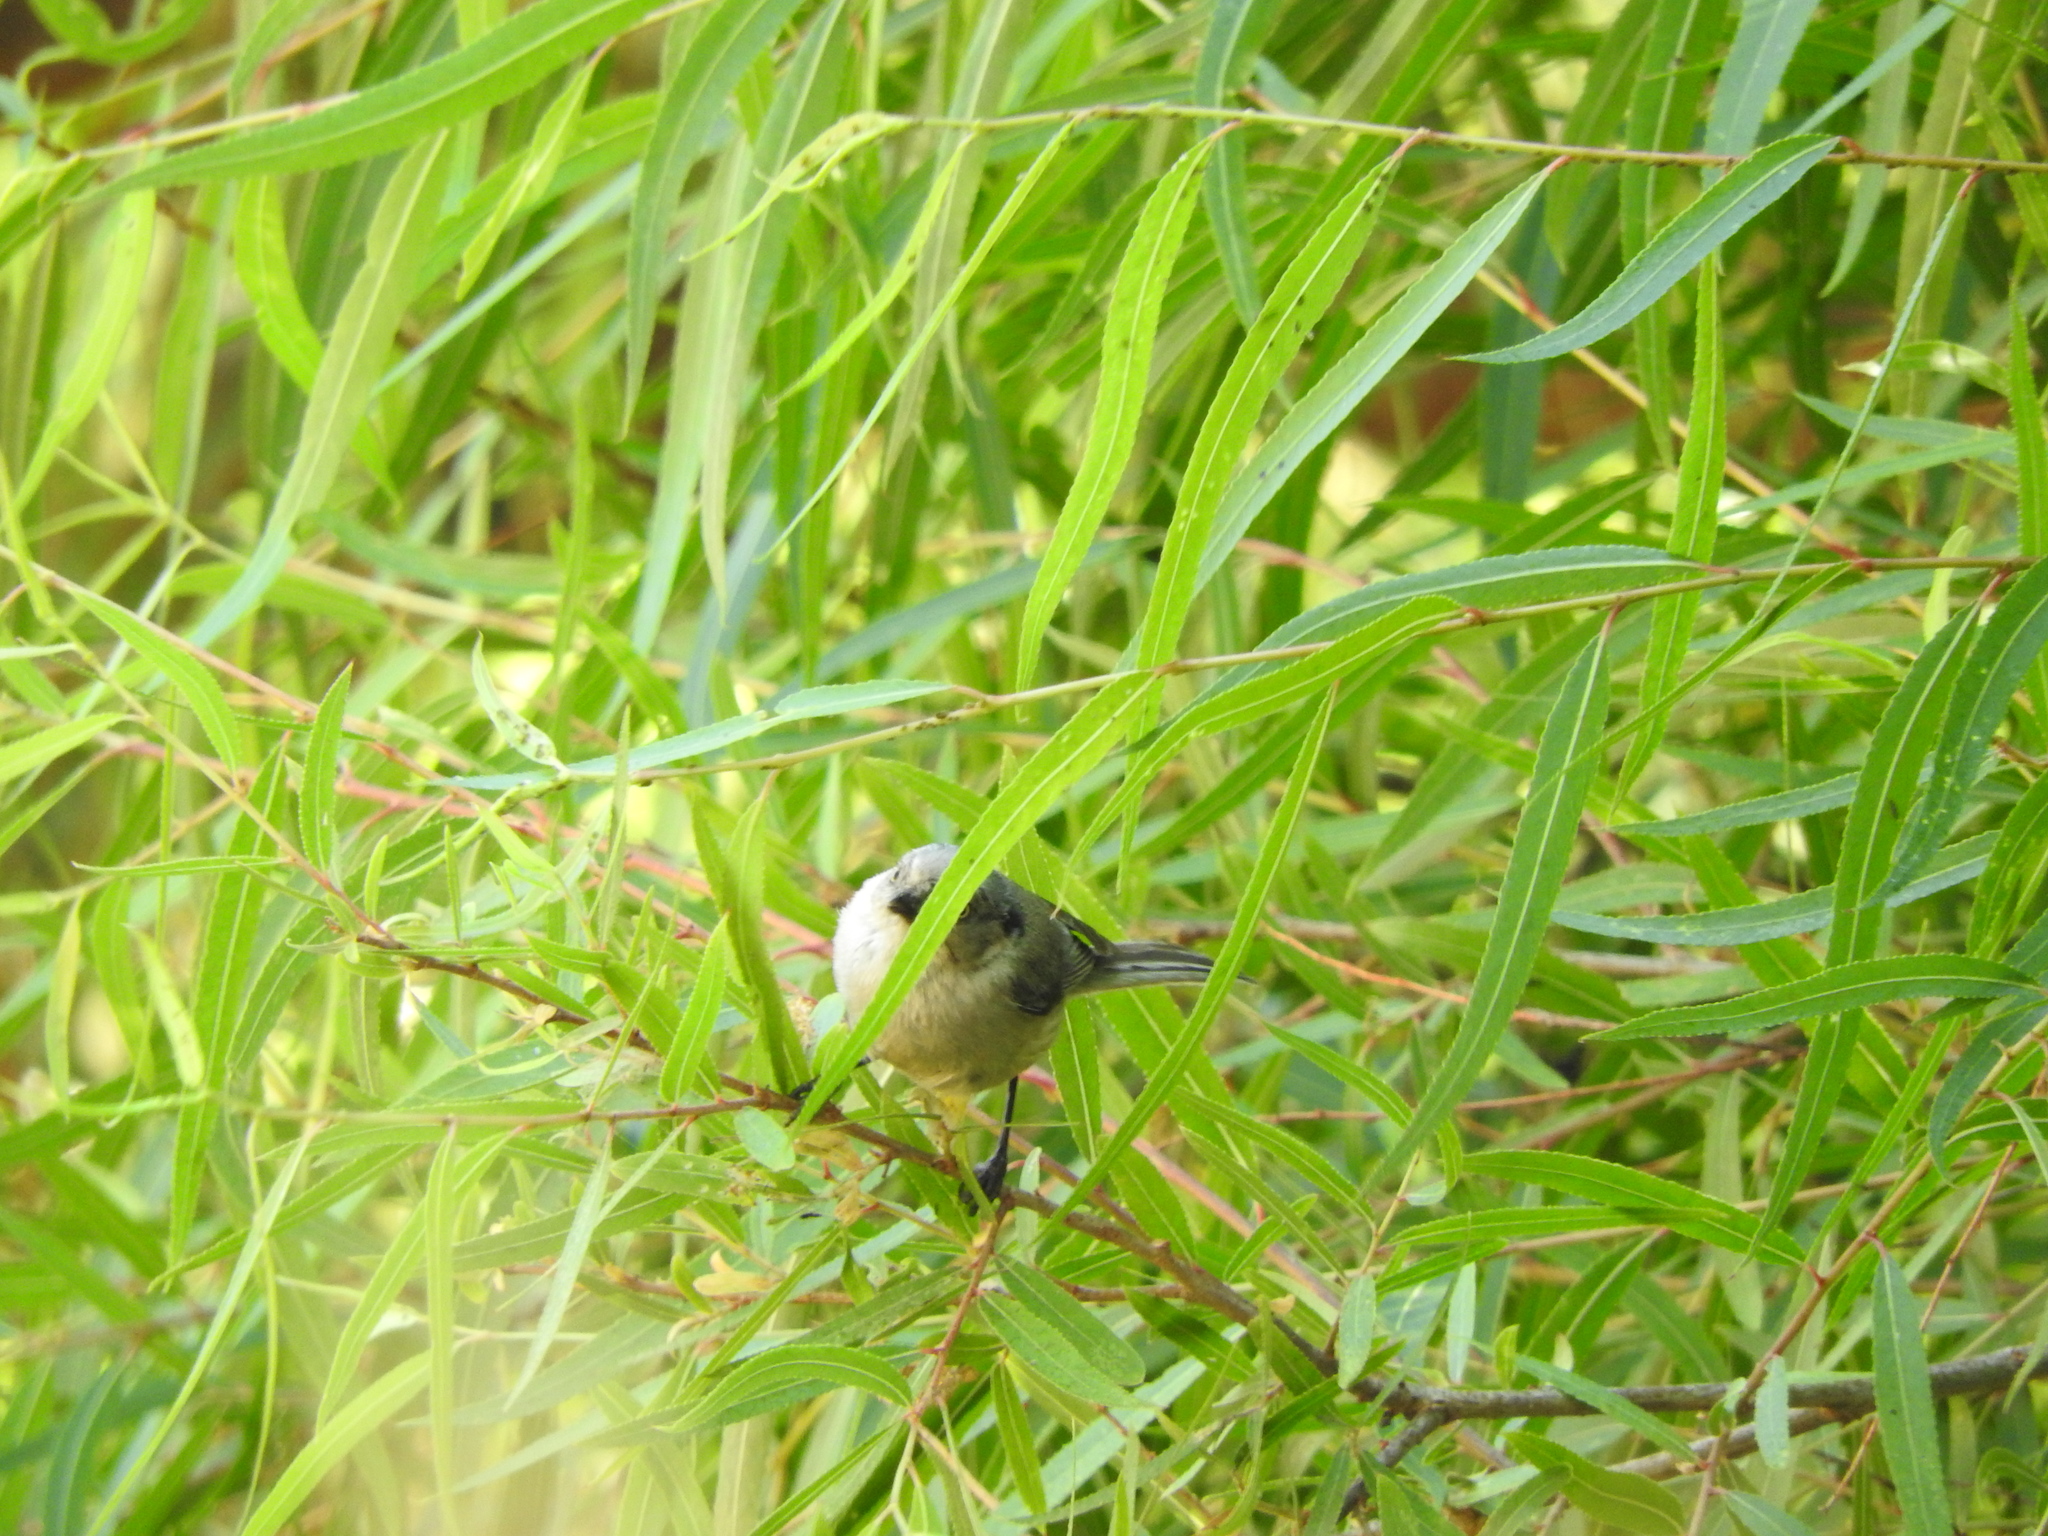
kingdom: Animalia
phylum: Chordata
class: Aves
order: Passeriformes
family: Aegithalidae
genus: Psaltriparus
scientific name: Psaltriparus minimus
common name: American bushtit
